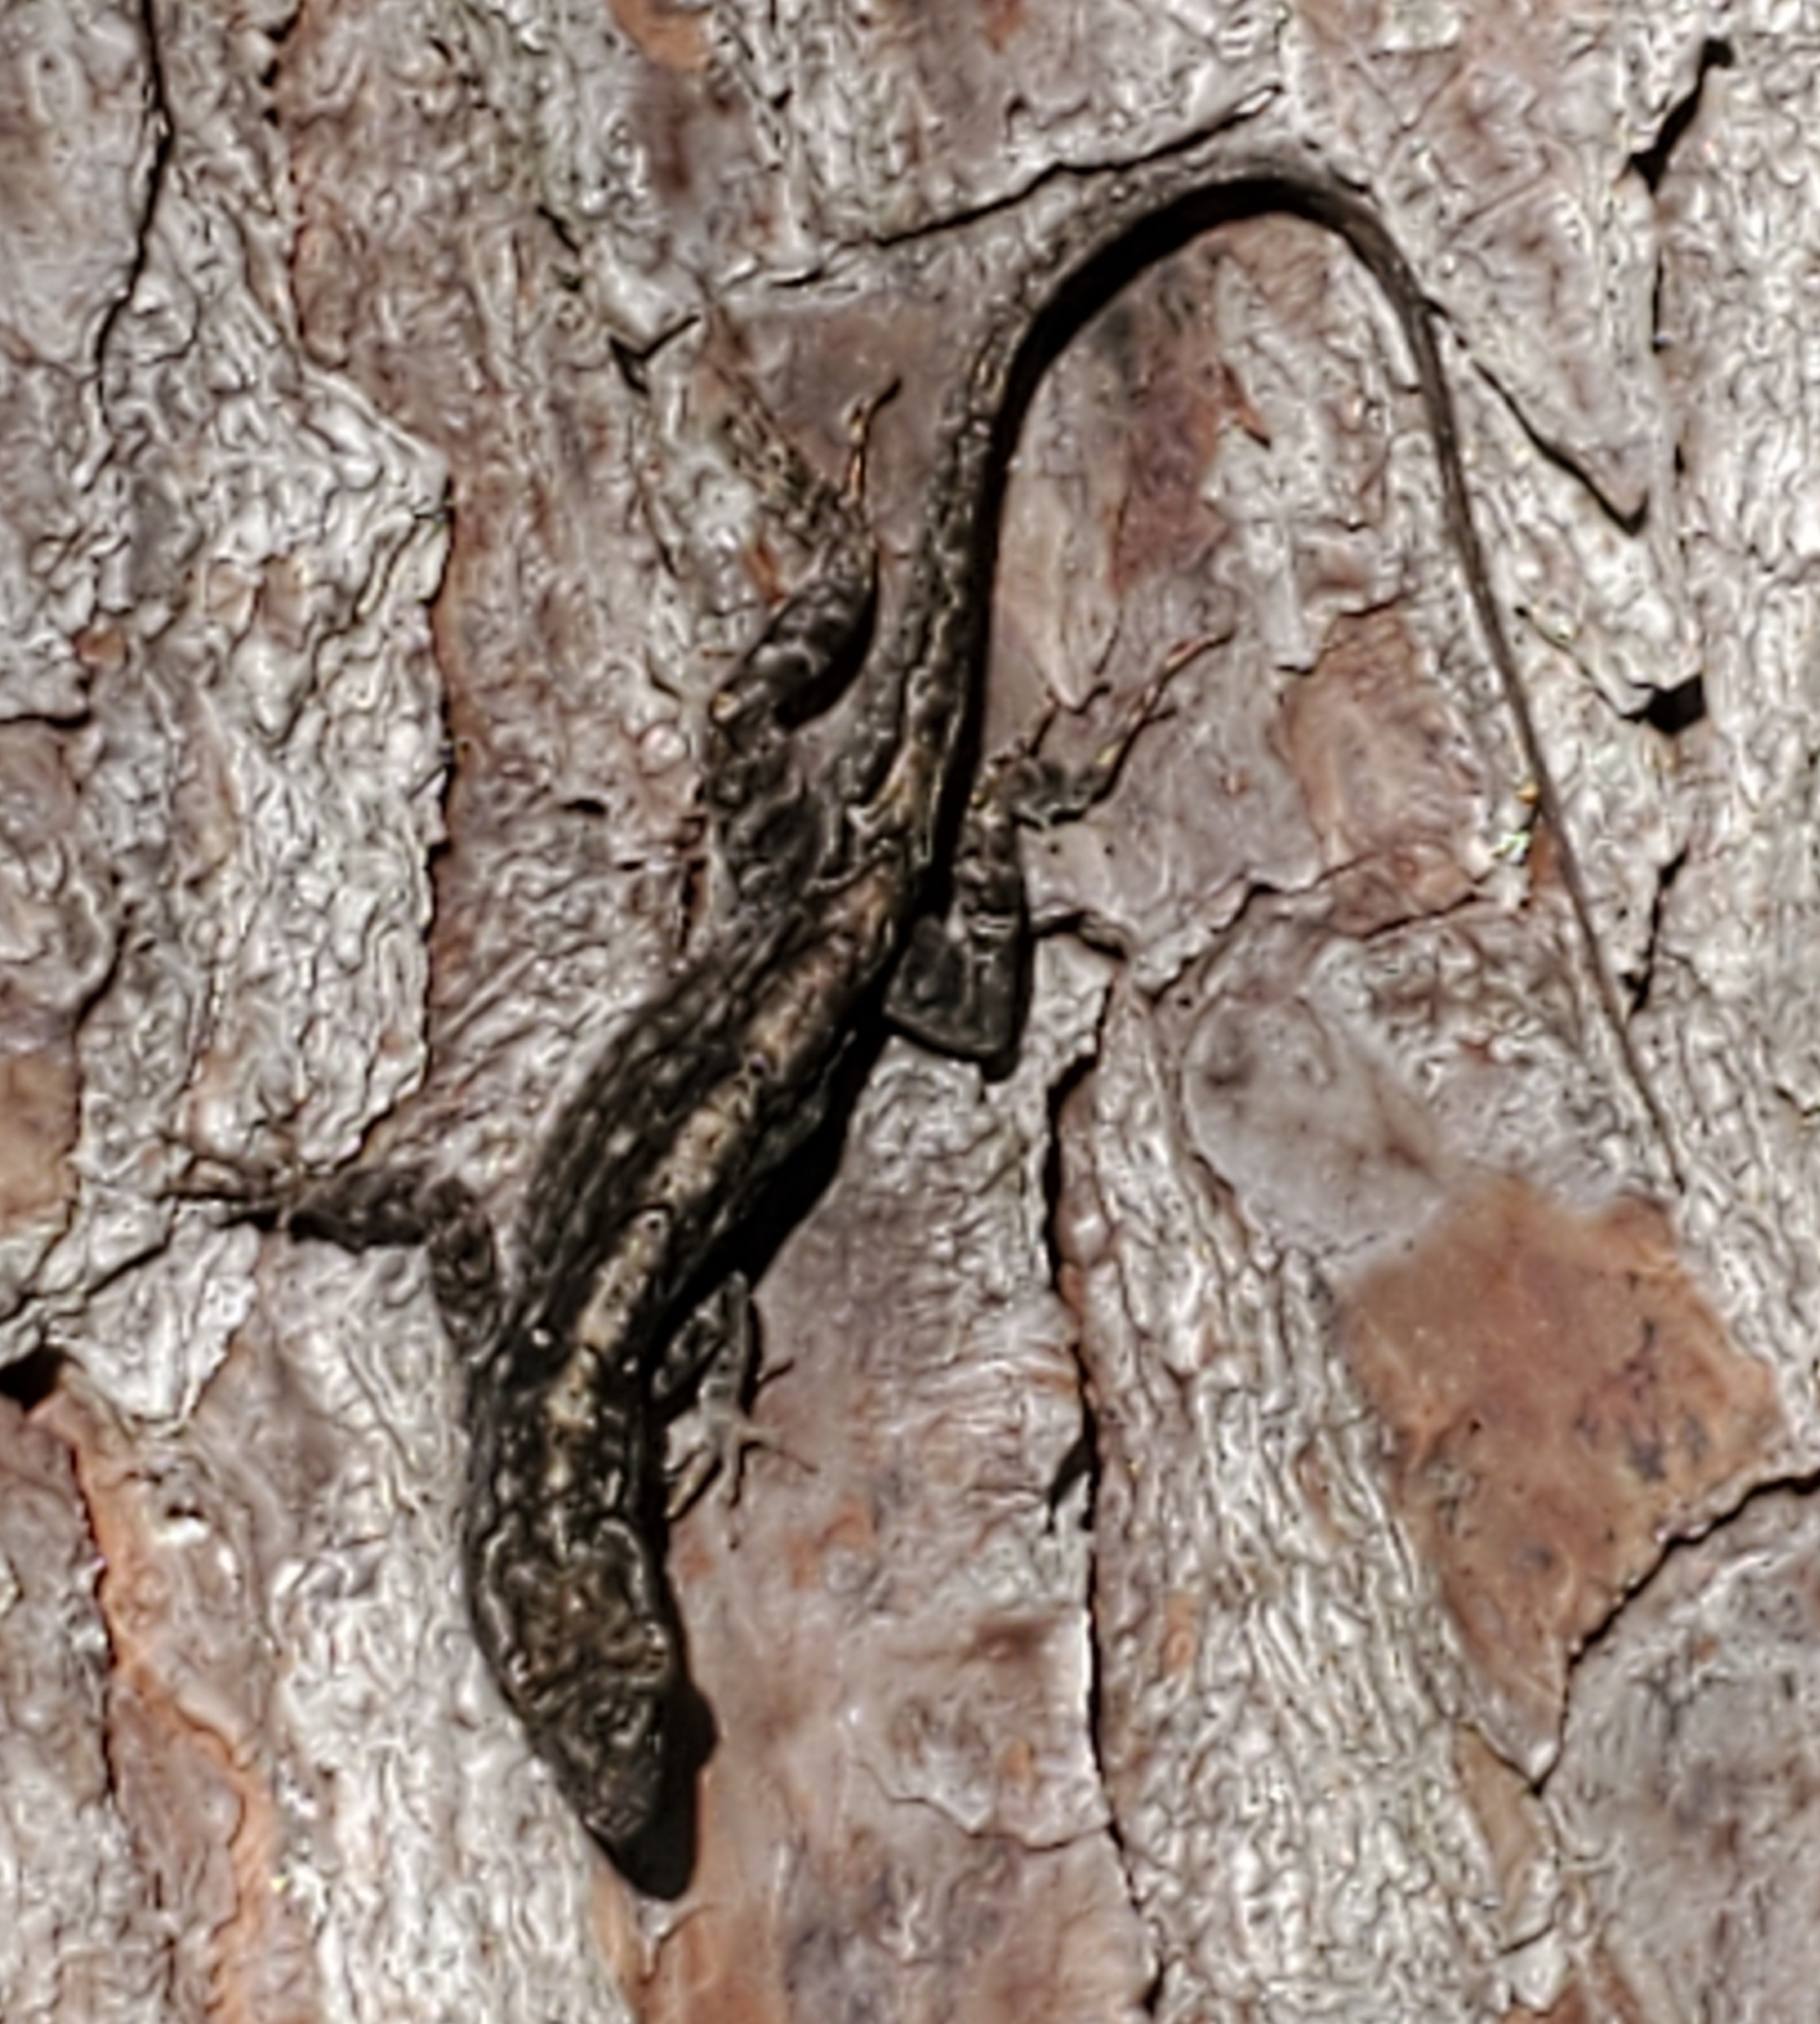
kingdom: Animalia
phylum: Chordata
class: Squamata
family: Dactyloidae
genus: Anolis
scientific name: Anolis sagrei
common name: Brown anole
